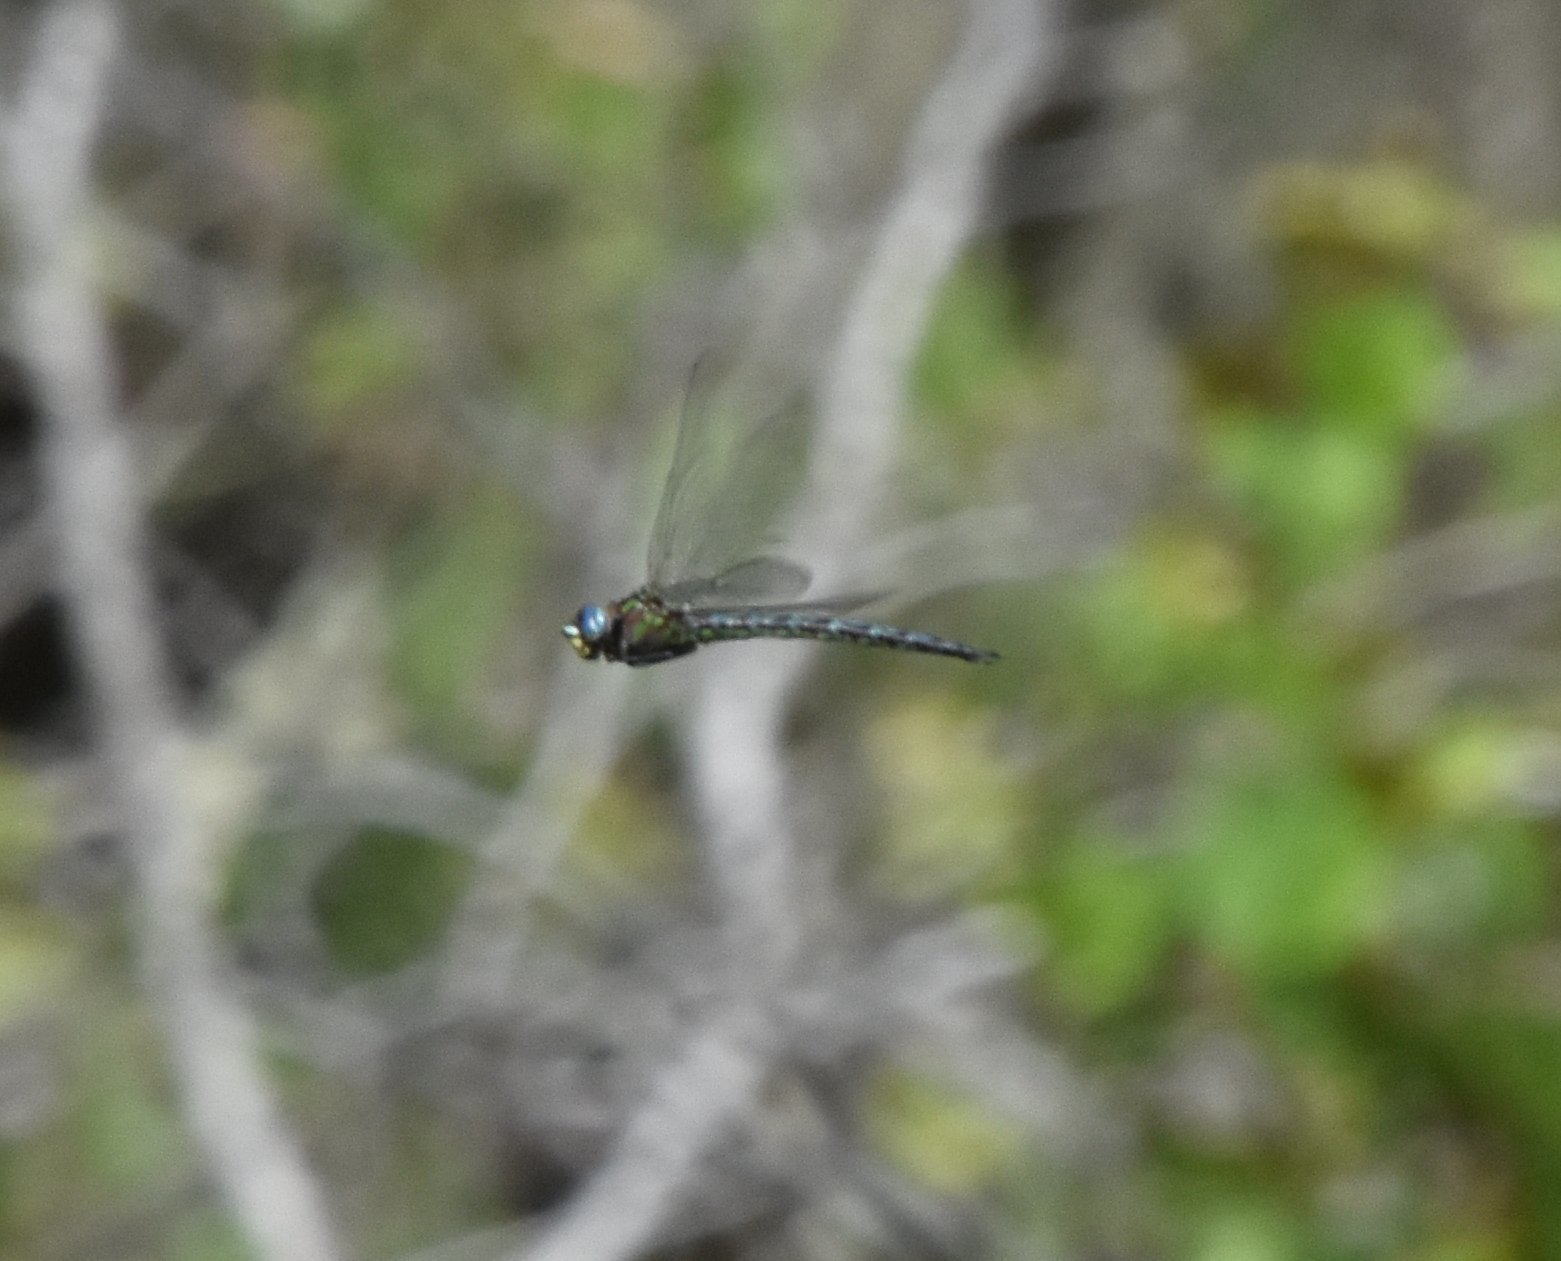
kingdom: Animalia
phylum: Arthropoda
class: Insecta
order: Odonata
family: Aeshnidae
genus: Nasiaeschna
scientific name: Nasiaeschna pentacantha
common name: Cyrano darner
